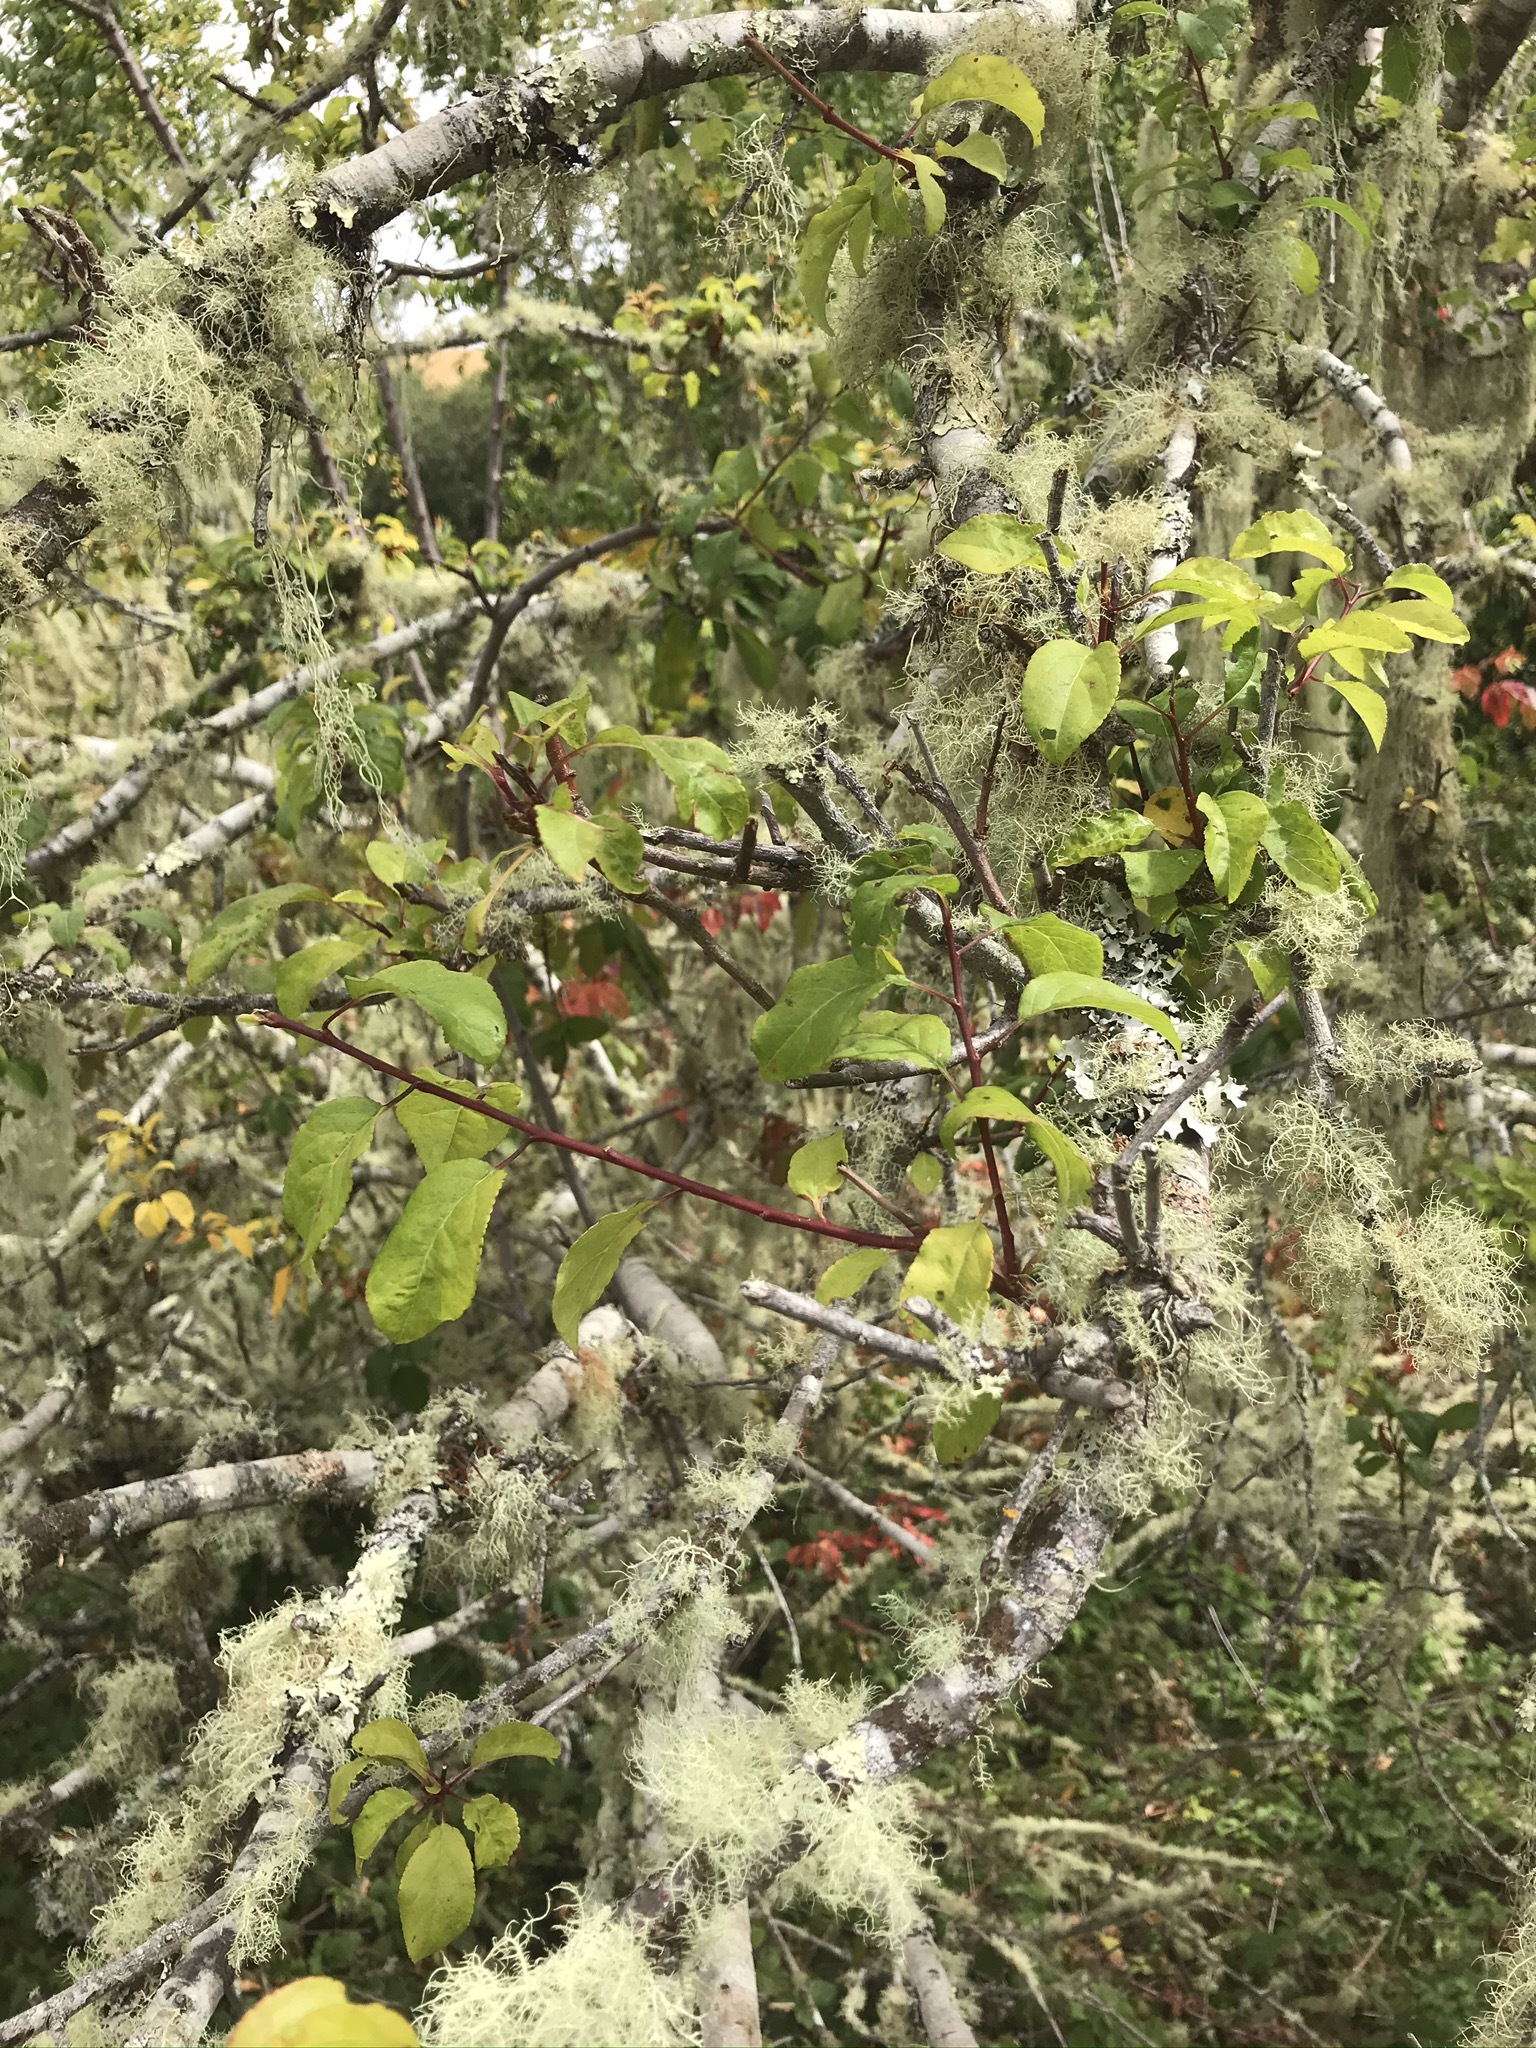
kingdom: Plantae
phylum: Tracheophyta
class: Magnoliopsida
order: Rosales
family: Rosaceae
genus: Prunus
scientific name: Prunus cerasifera
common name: Cherry plum
